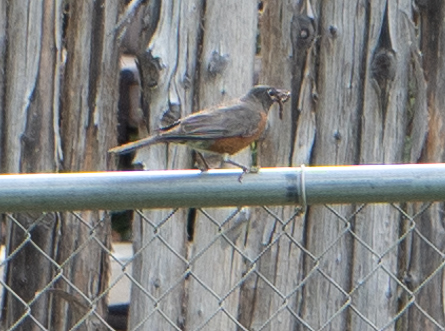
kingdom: Animalia
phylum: Chordata
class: Aves
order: Passeriformes
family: Turdidae
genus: Turdus
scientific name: Turdus migratorius
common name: American robin
